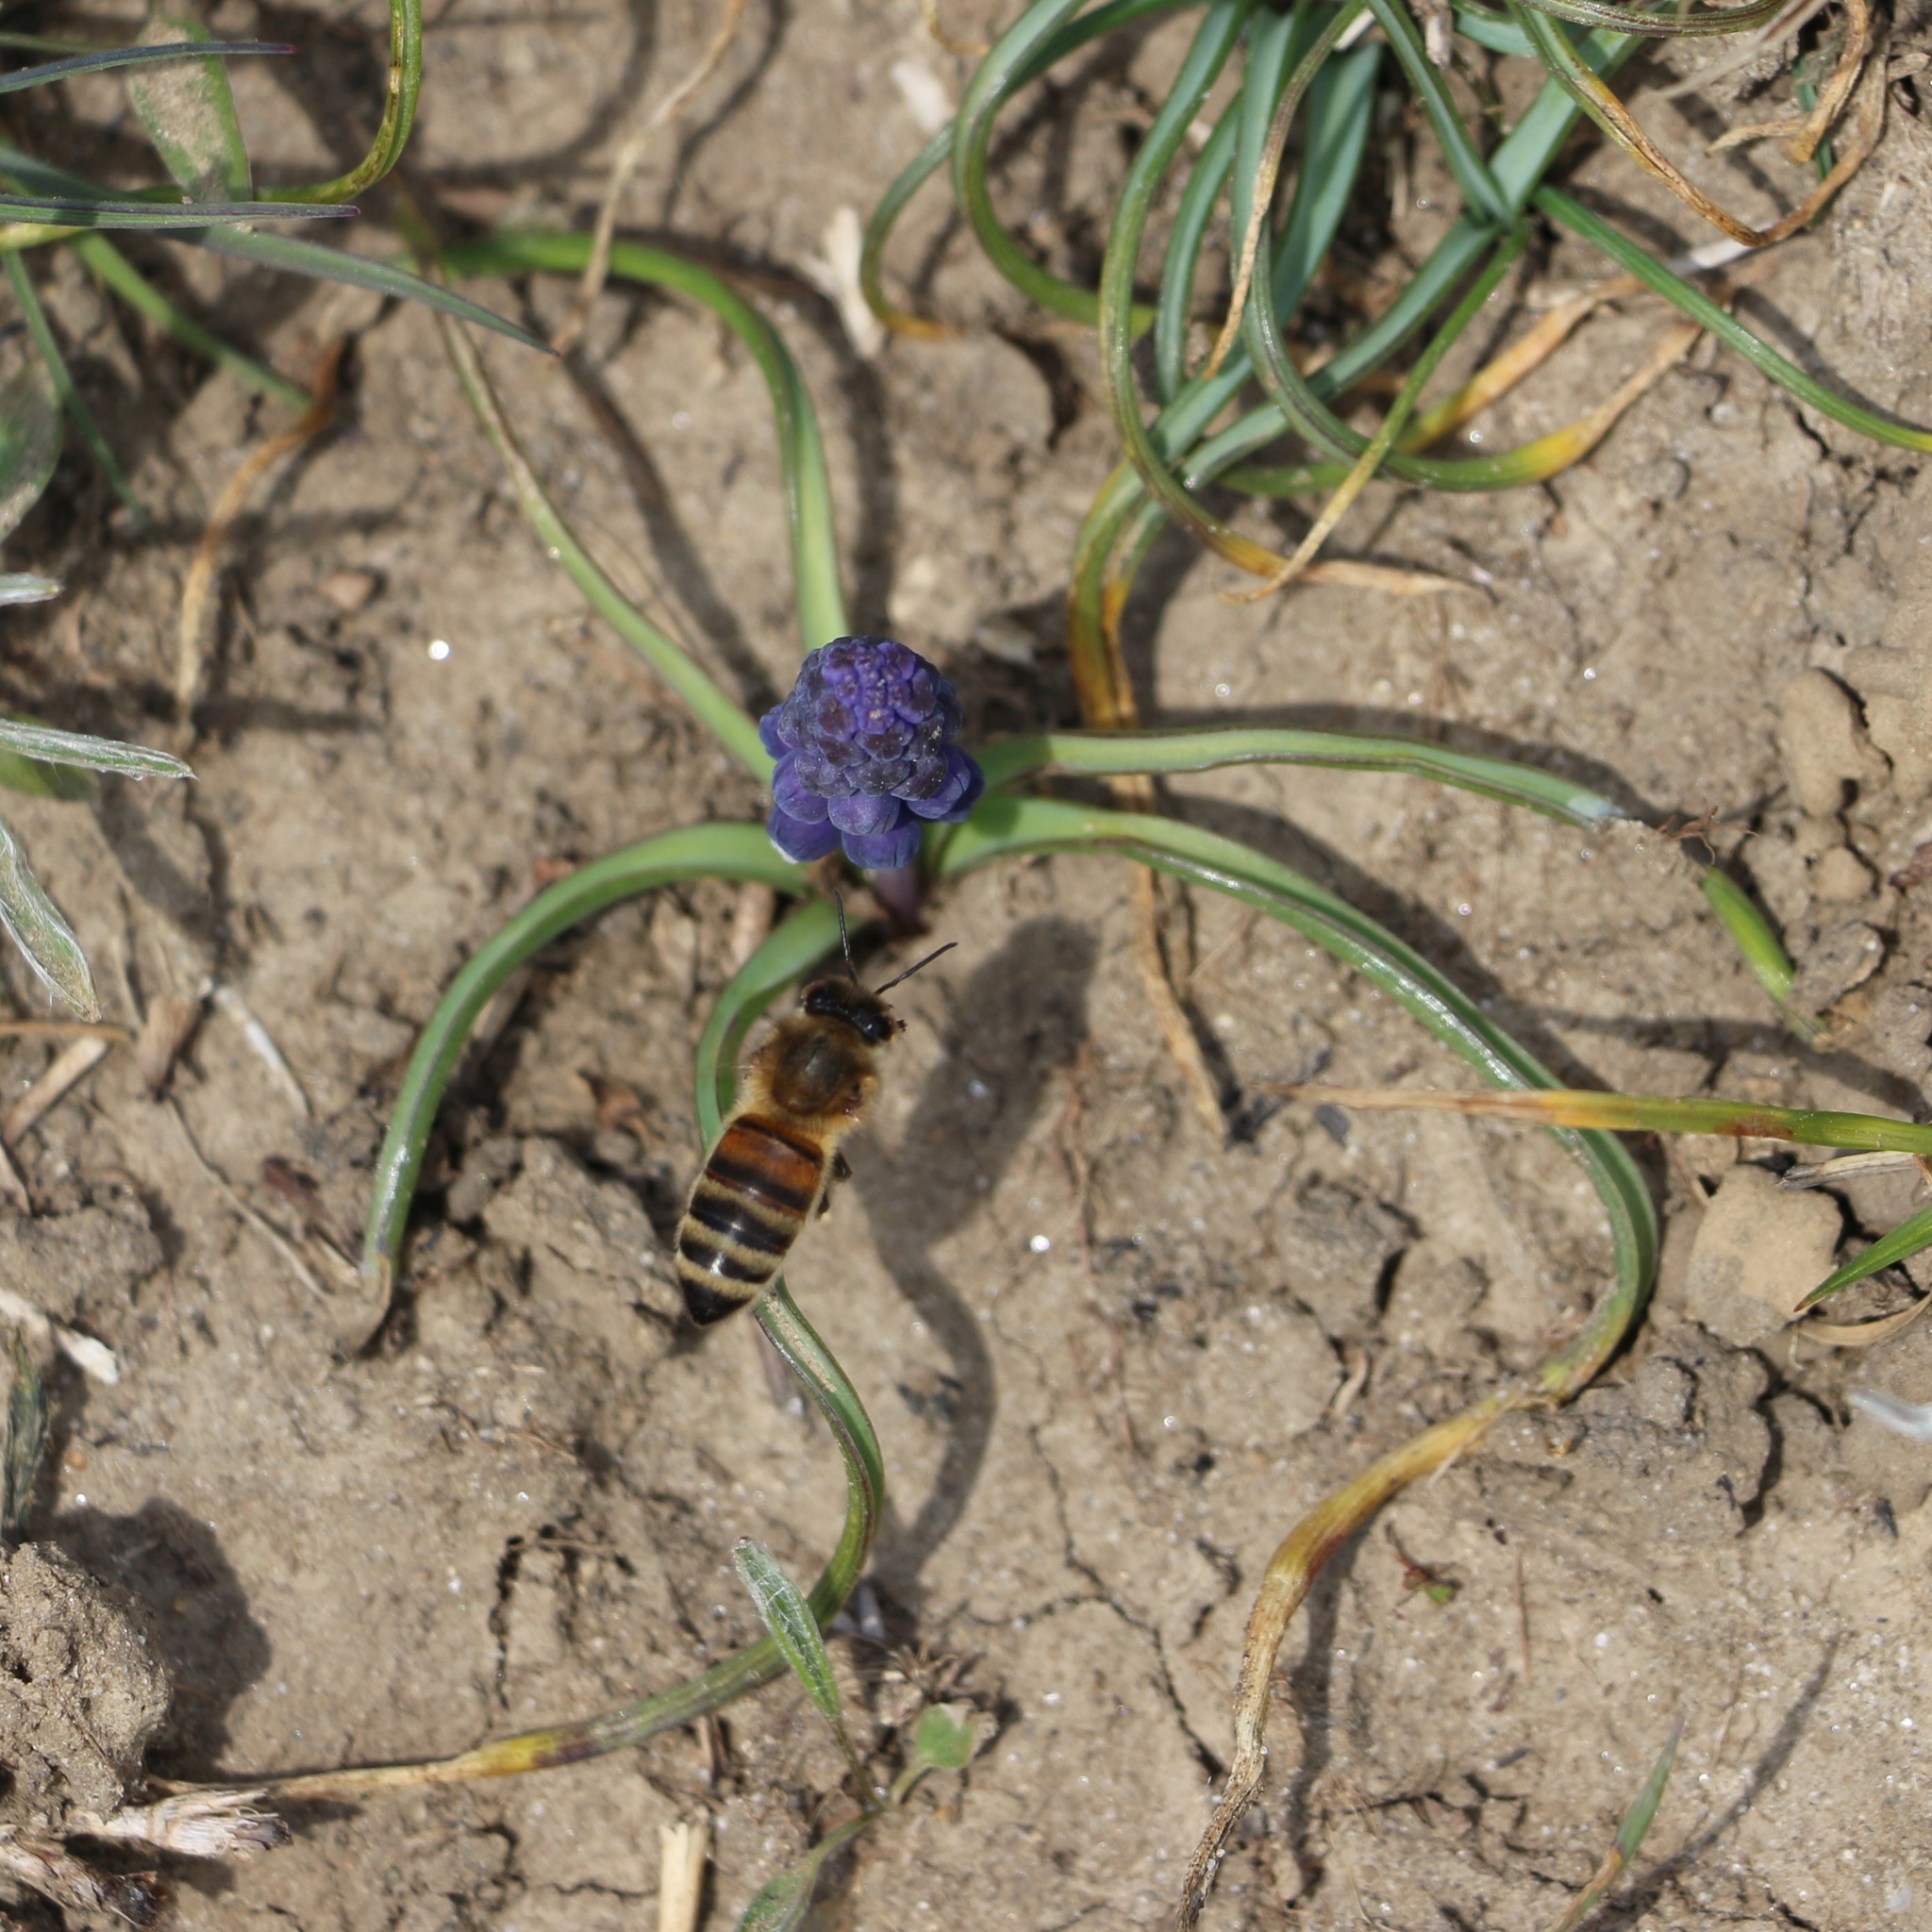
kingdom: Plantae
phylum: Tracheophyta
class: Liliopsida
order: Asparagales
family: Asparagaceae
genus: Muscari
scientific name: Muscari neglectum
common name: Grape-hyacinth
